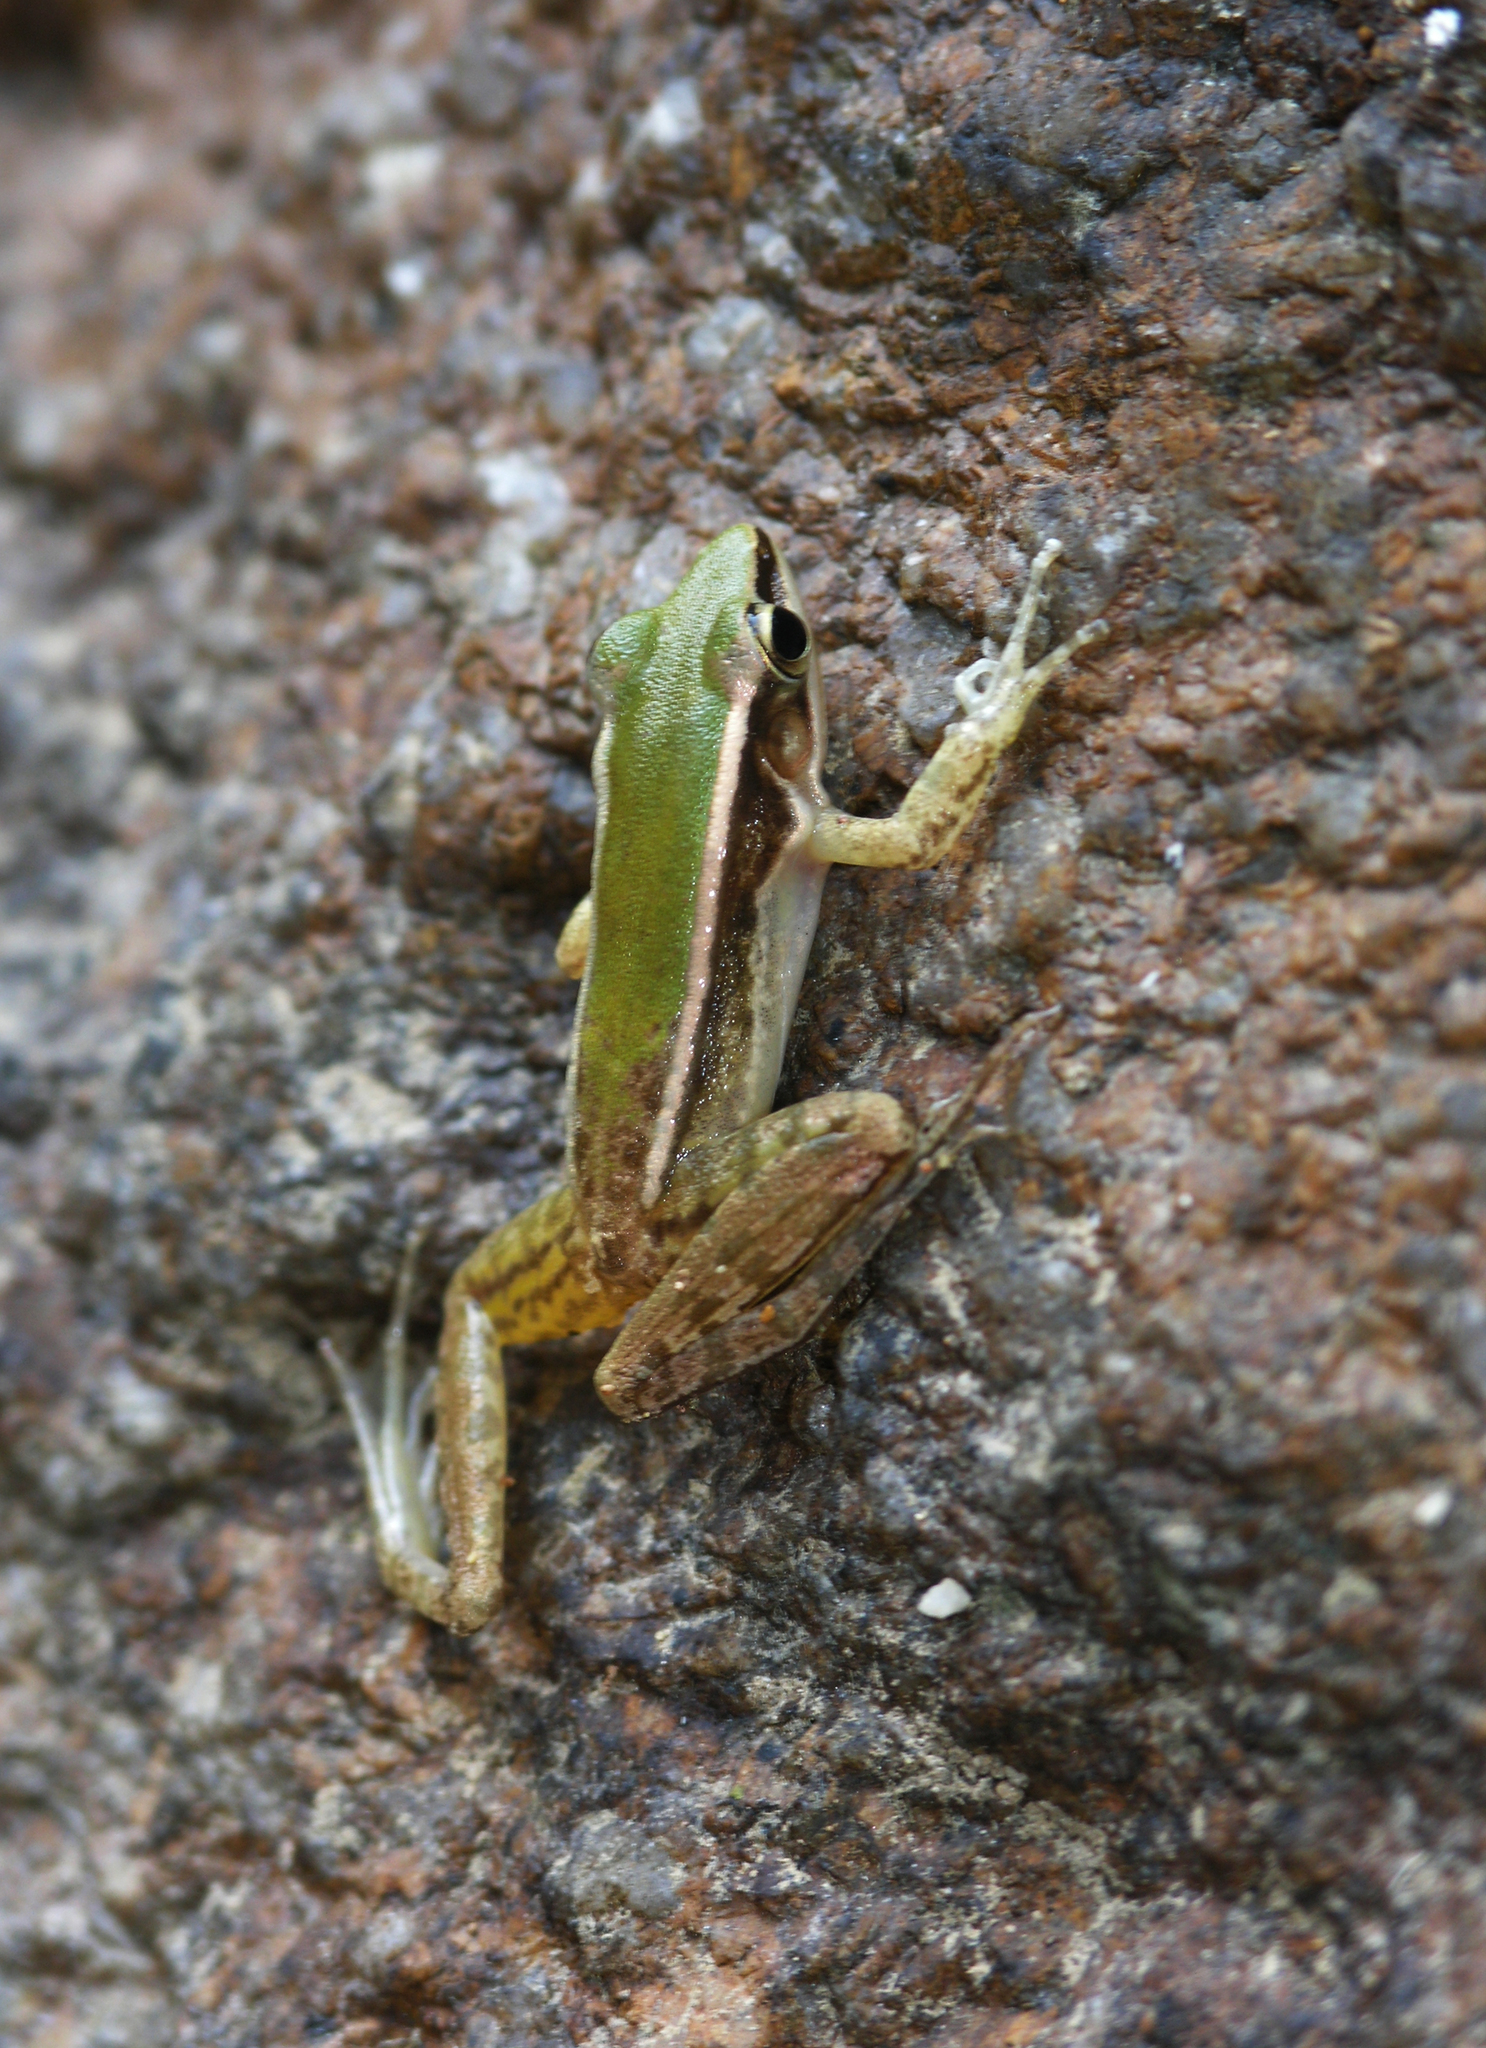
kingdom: Animalia
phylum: Chordata
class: Amphibia
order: Anura
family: Ranidae
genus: Hylarana
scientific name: Hylarana taipehensis
